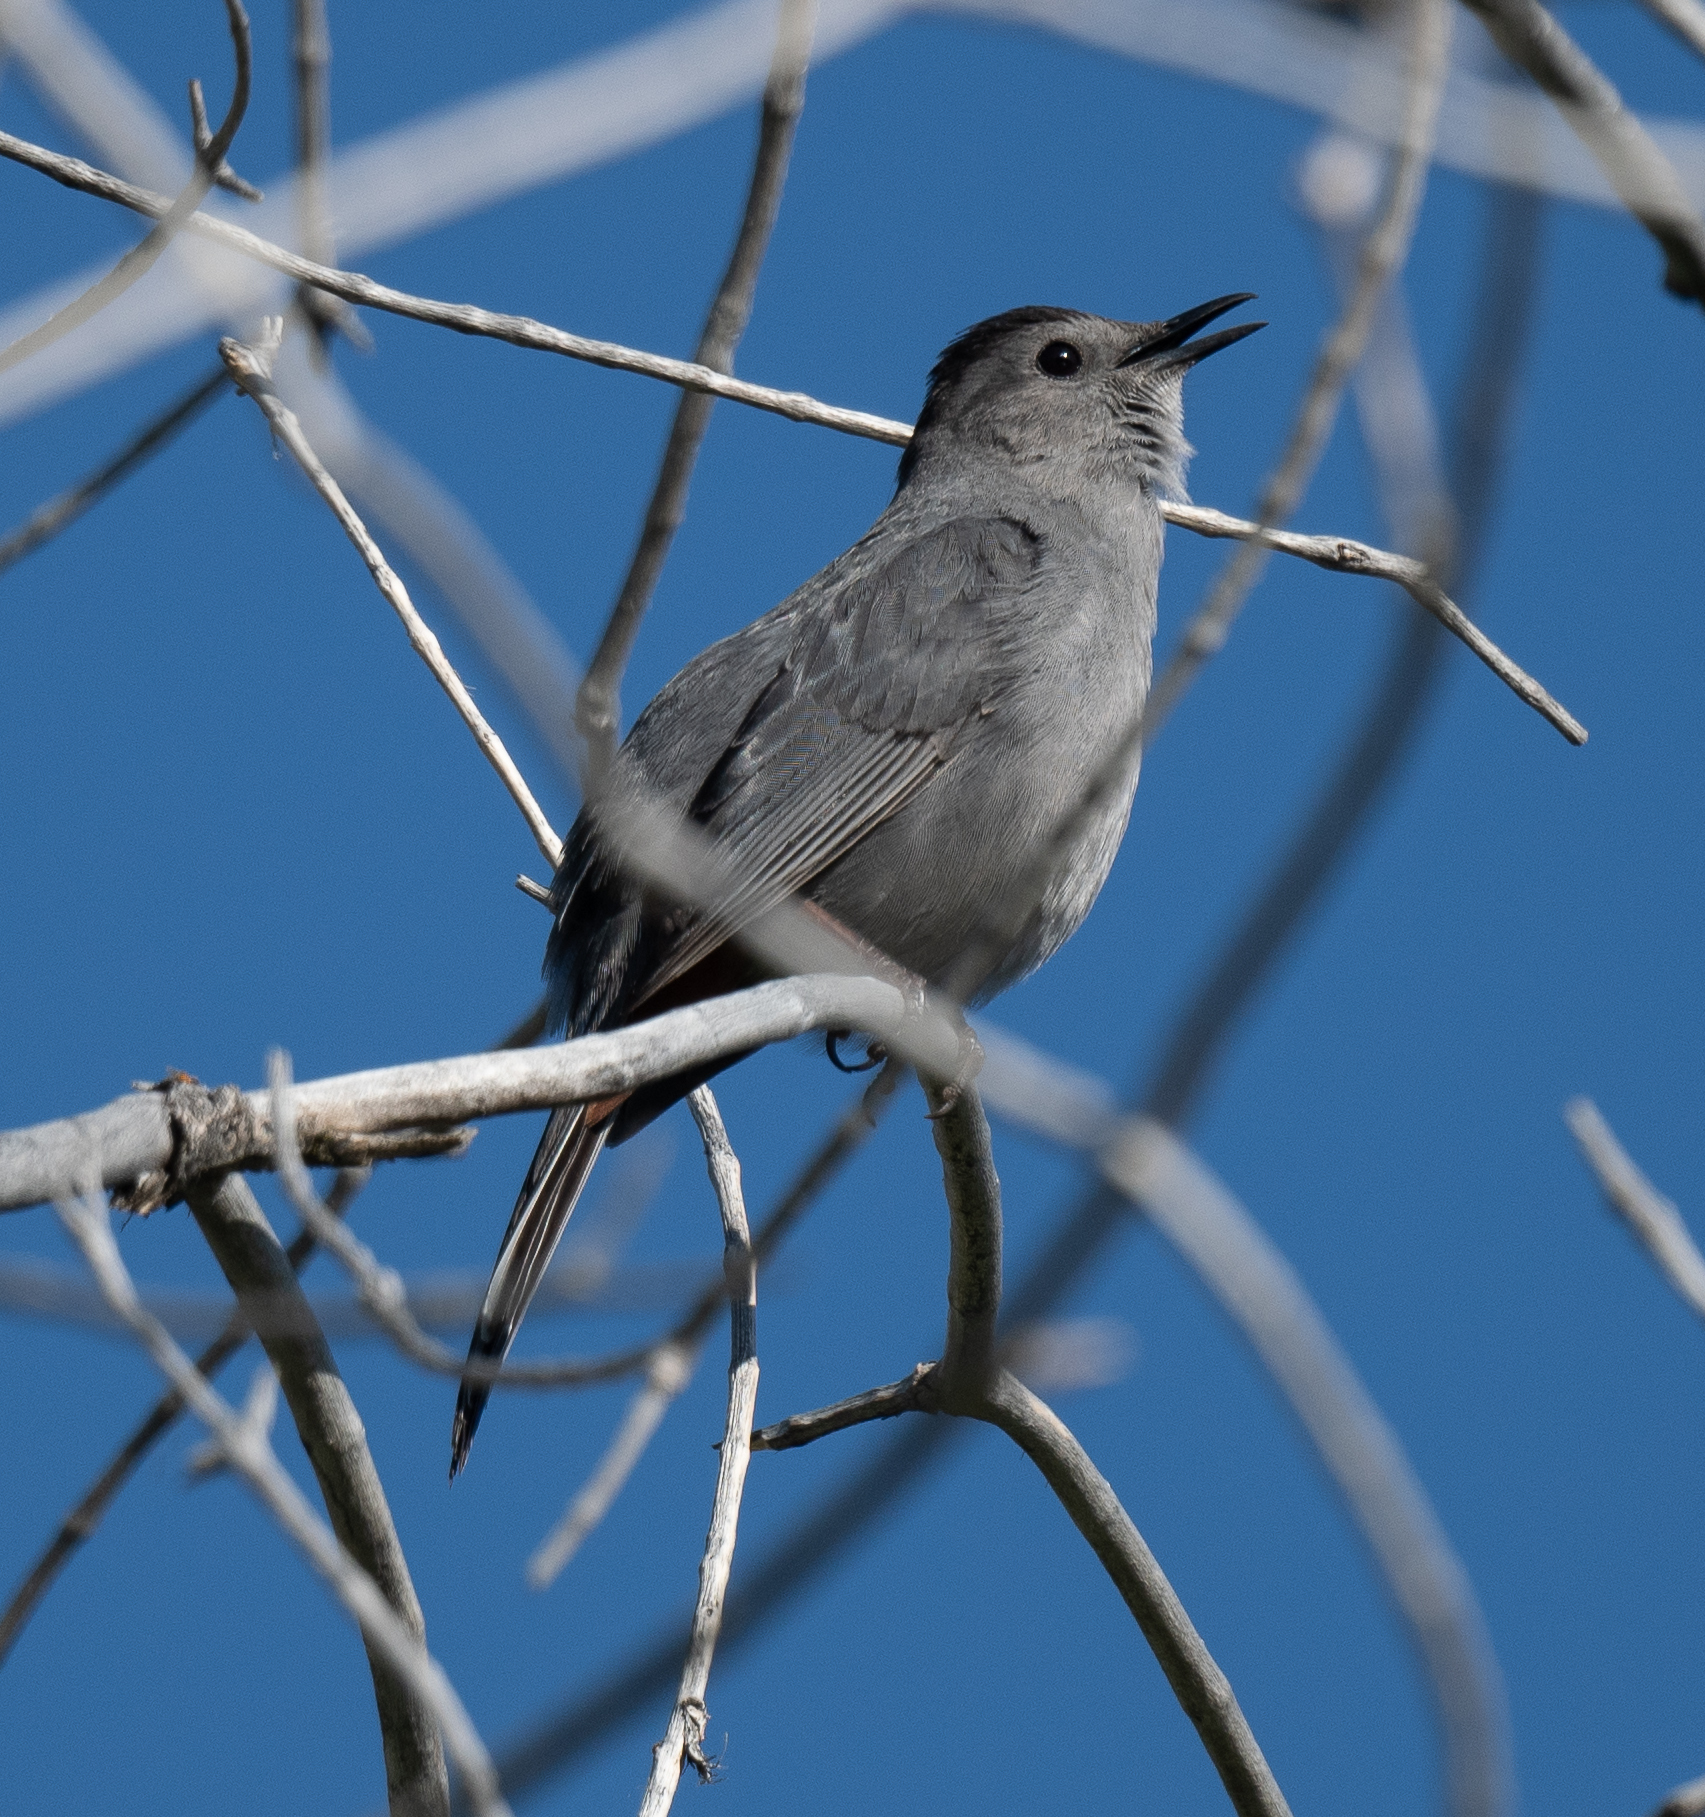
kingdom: Animalia
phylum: Chordata
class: Aves
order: Passeriformes
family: Mimidae
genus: Dumetella
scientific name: Dumetella carolinensis
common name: Gray catbird
